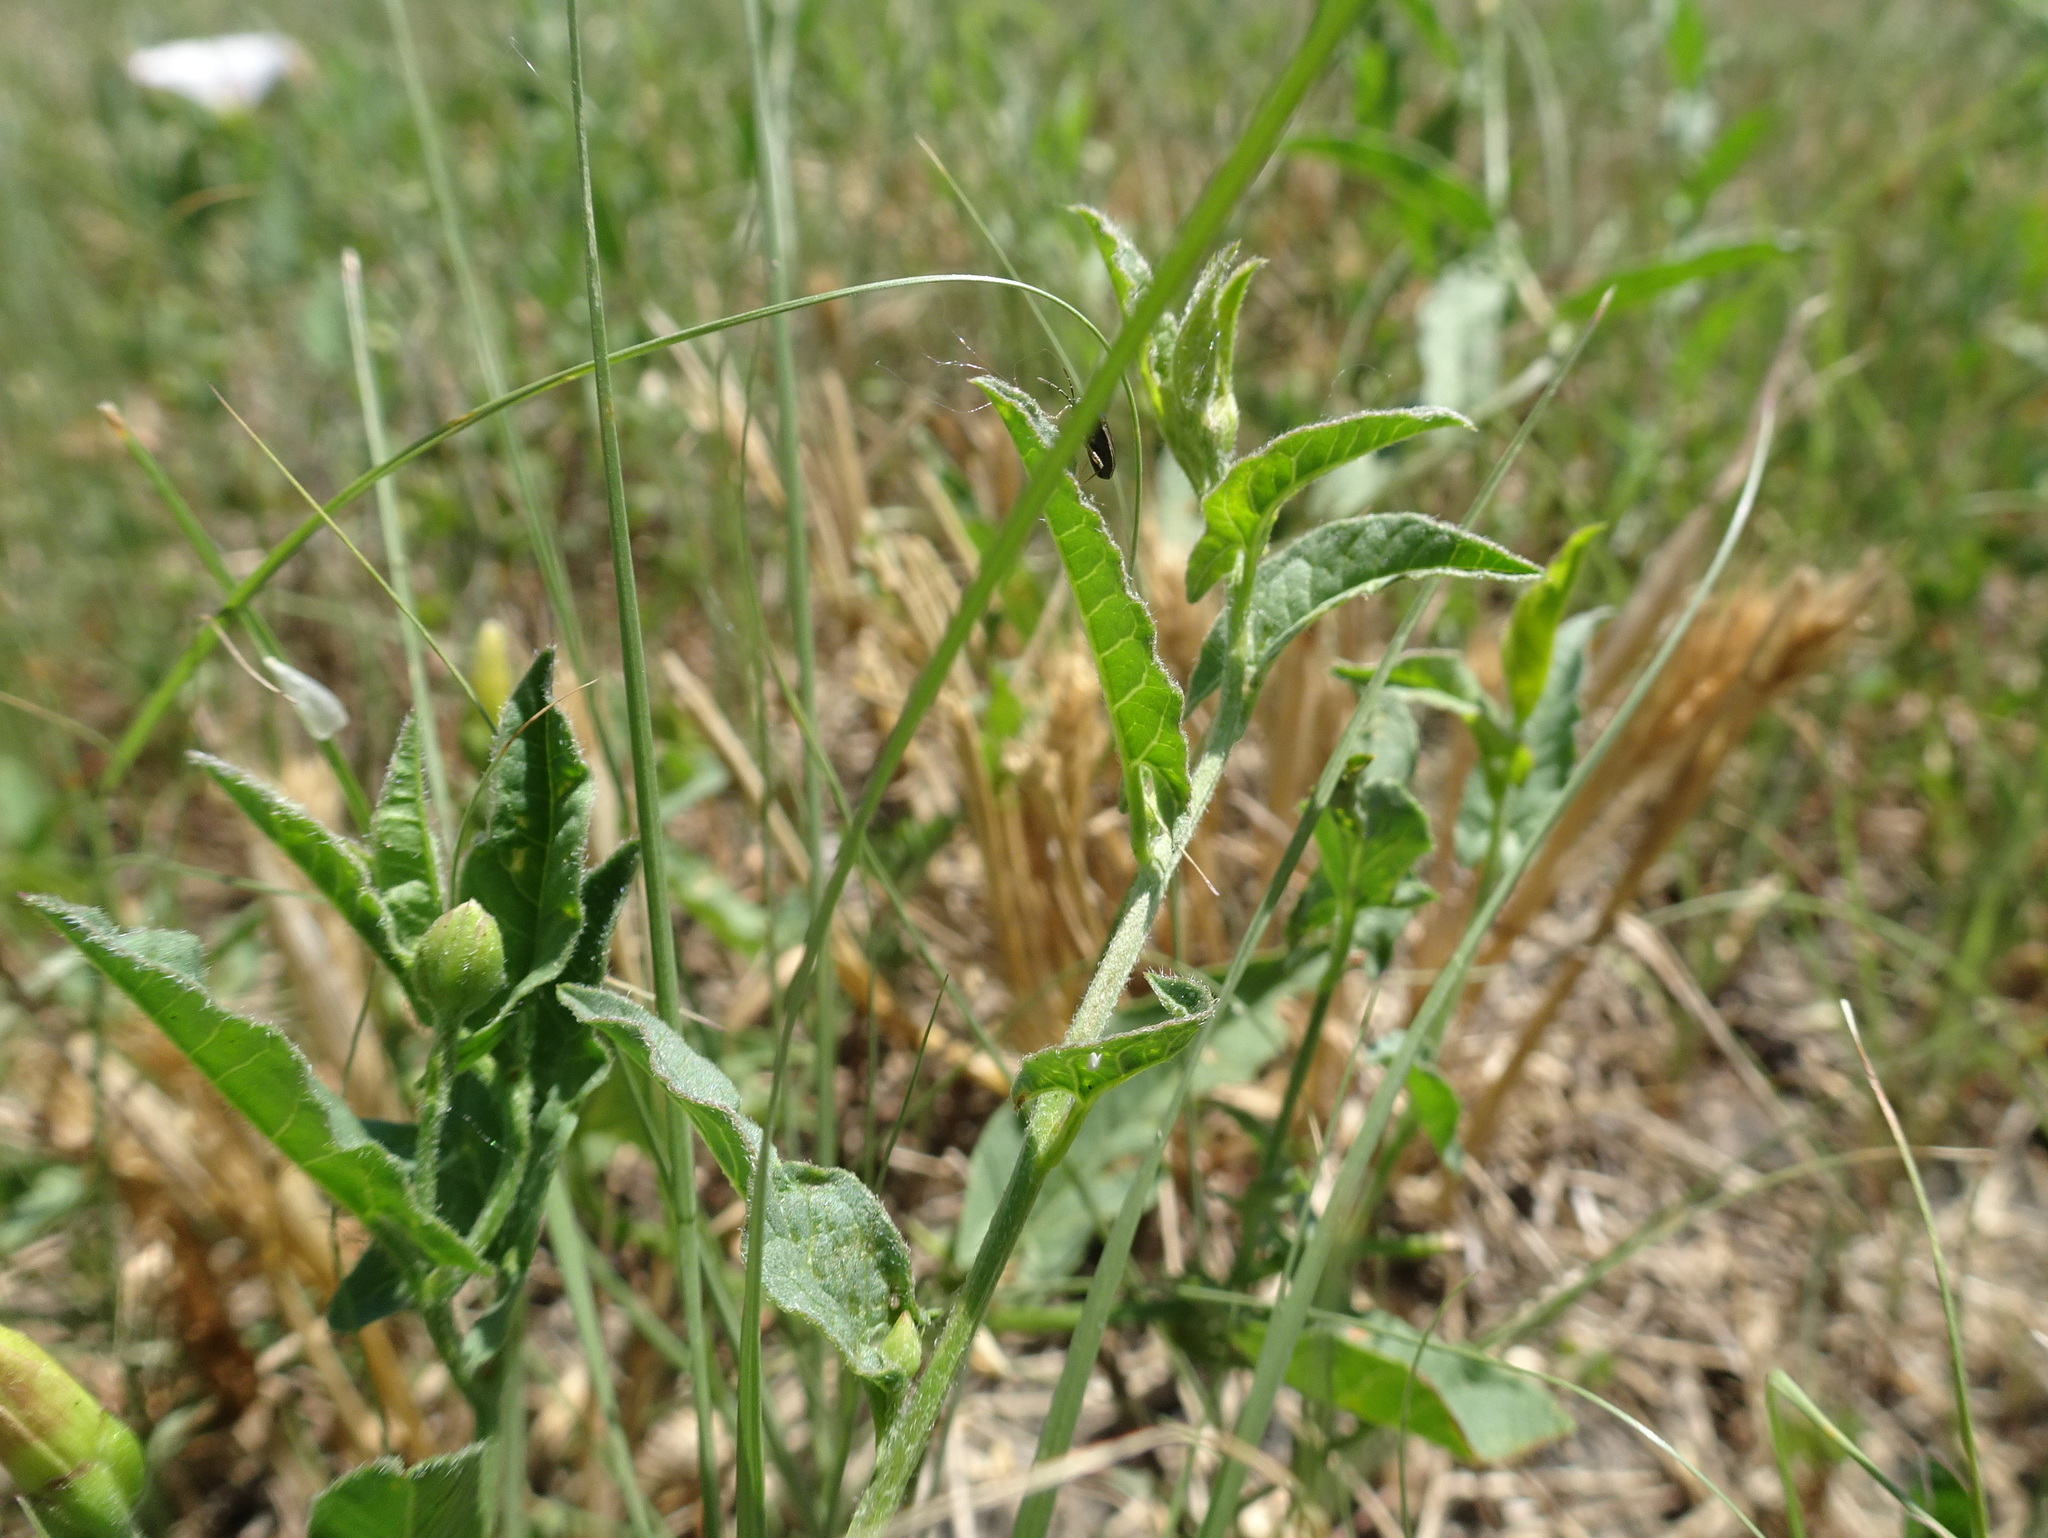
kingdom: Plantae
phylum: Tracheophyta
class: Magnoliopsida
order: Solanales
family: Convolvulaceae
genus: Convolvulus
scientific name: Convolvulus arvensis
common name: Field bindweed
